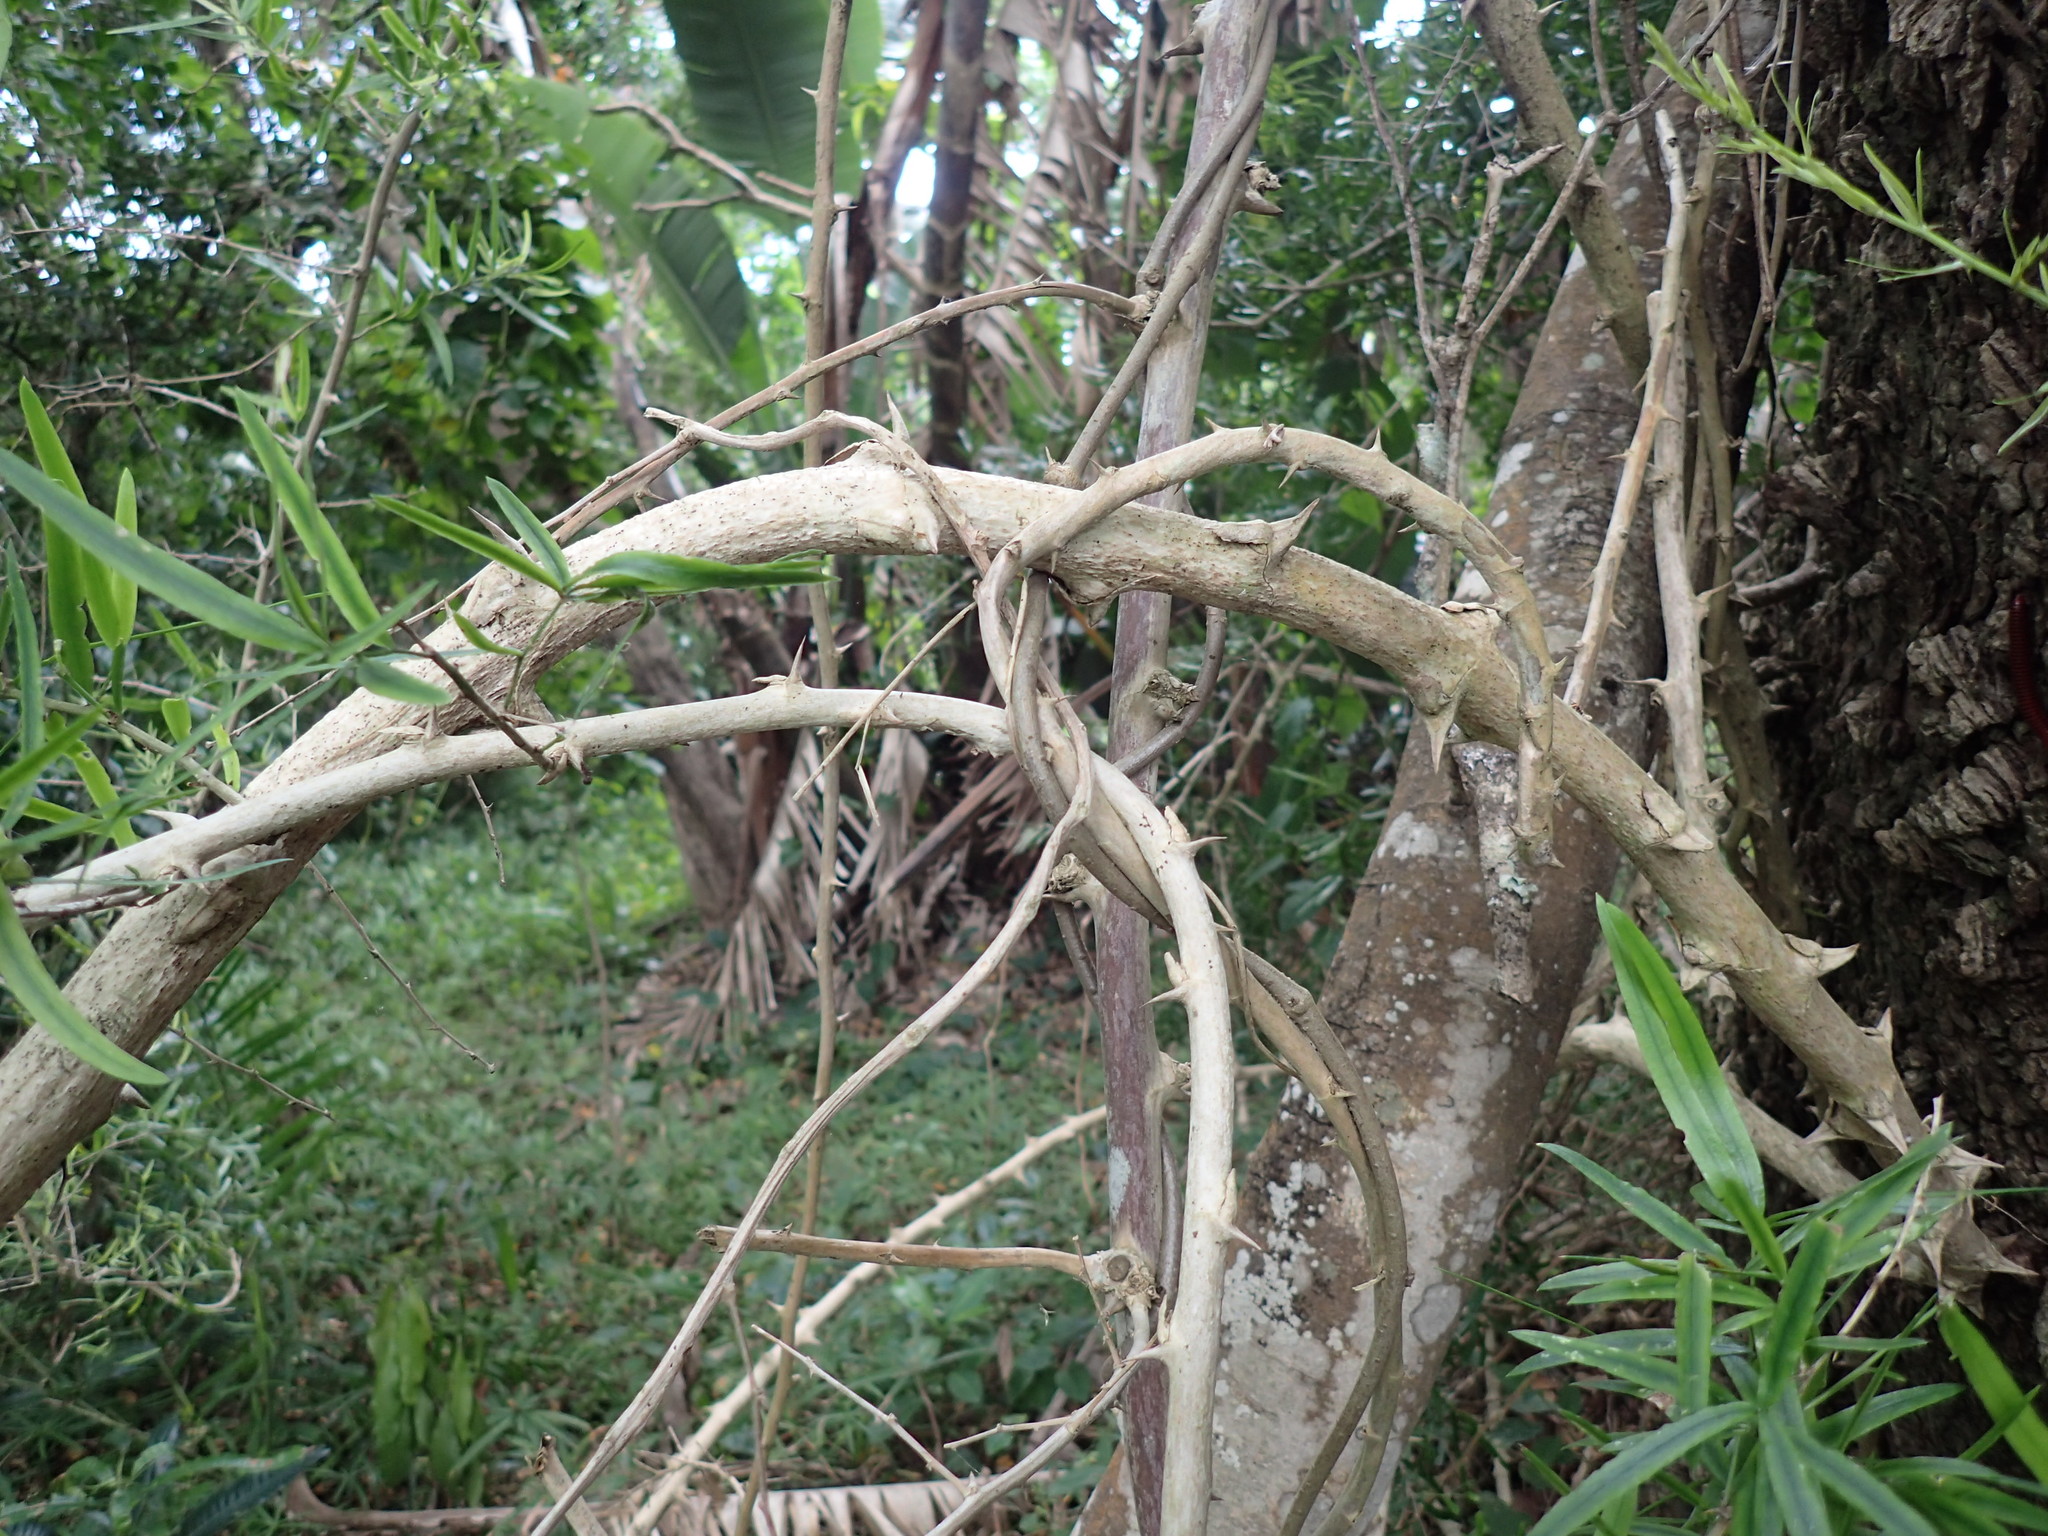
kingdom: Plantae
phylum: Tracheophyta
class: Liliopsida
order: Asparagales
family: Asparagaceae
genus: Asparagus
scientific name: Asparagus falcatus
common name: Asparagus
